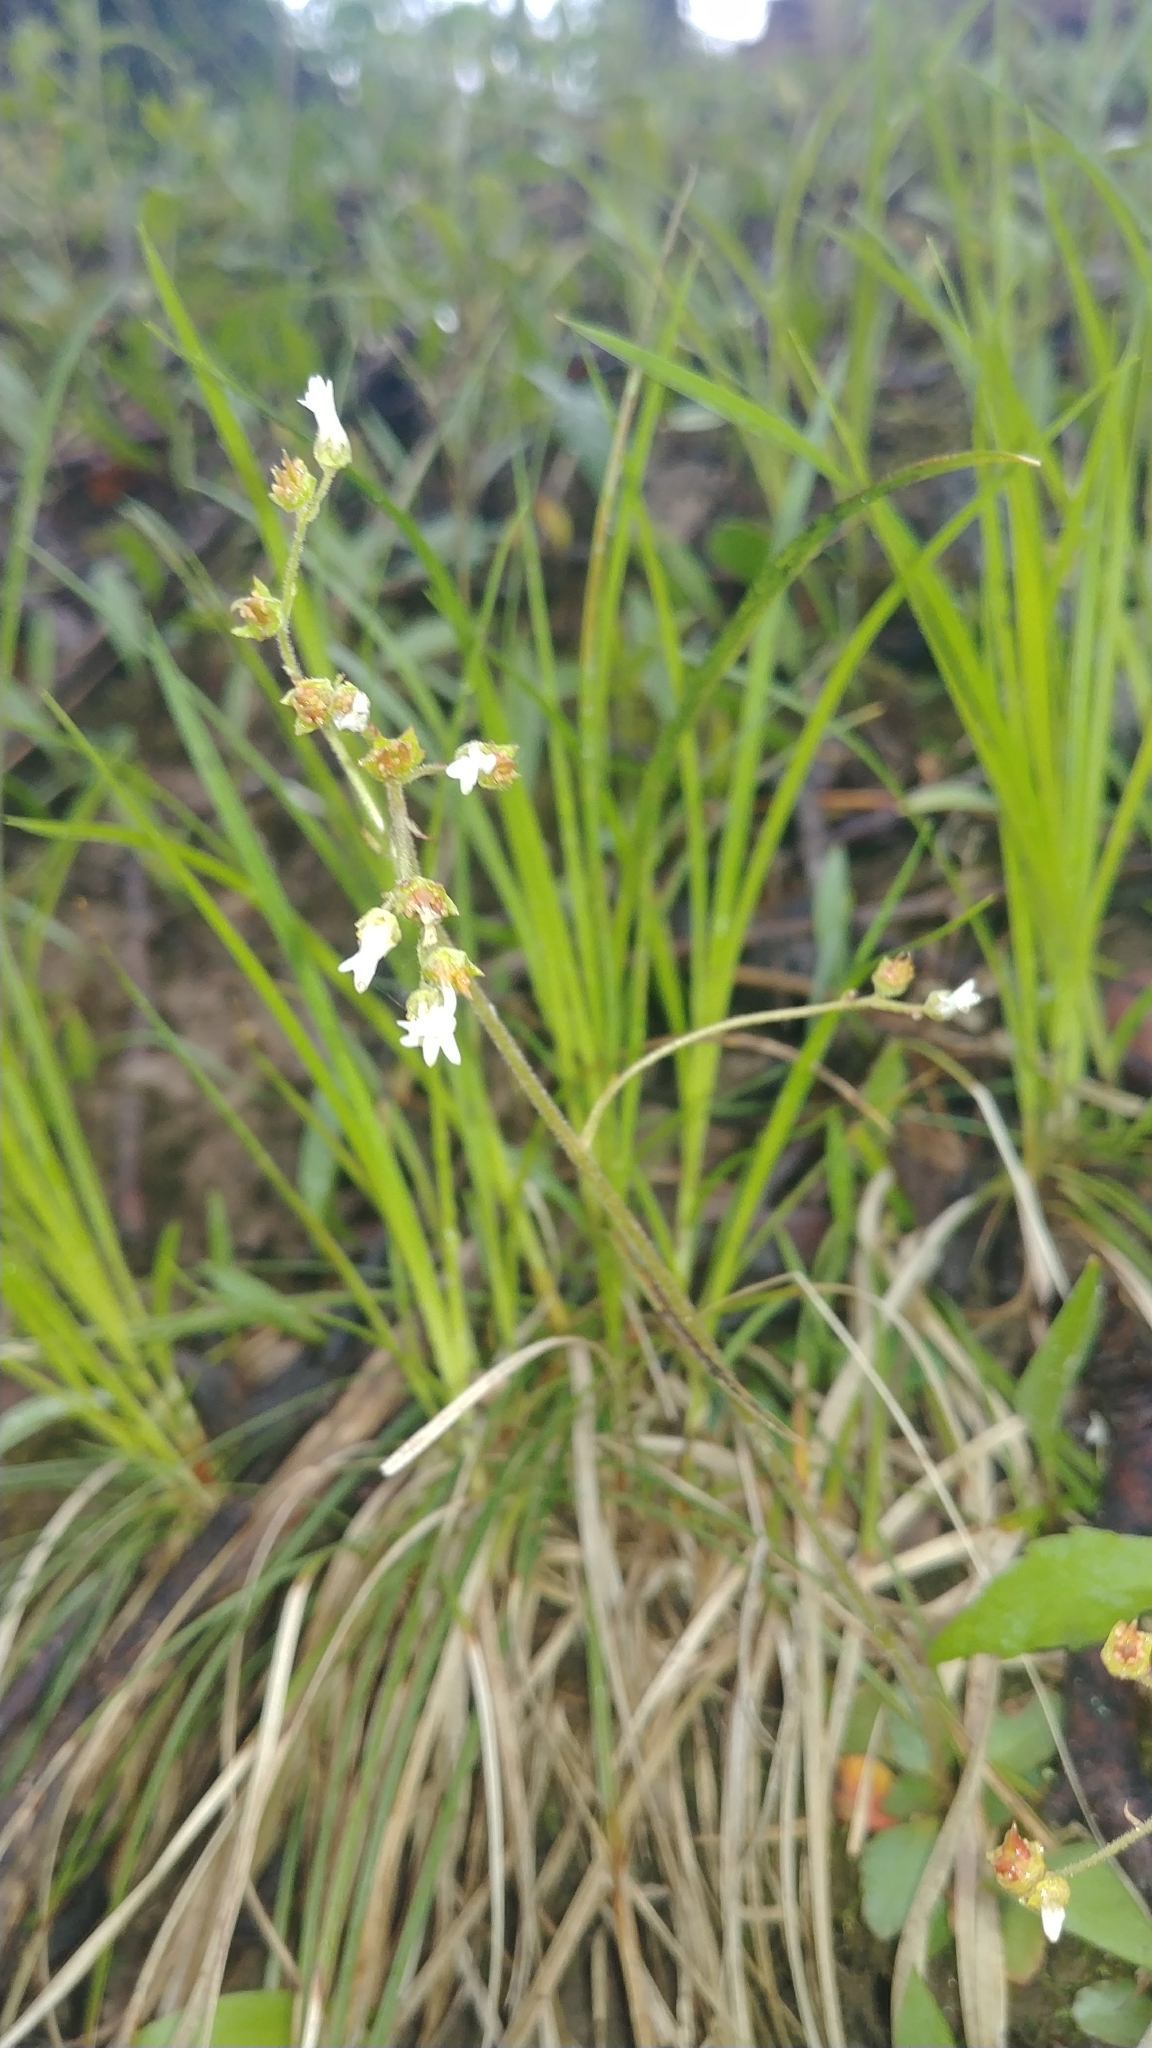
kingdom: Plantae
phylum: Tracheophyta
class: Magnoliopsida
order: Saxifragales
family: Saxifragaceae
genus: Micranthes
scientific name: Micranthes virginiensis
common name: Early saxifrage
